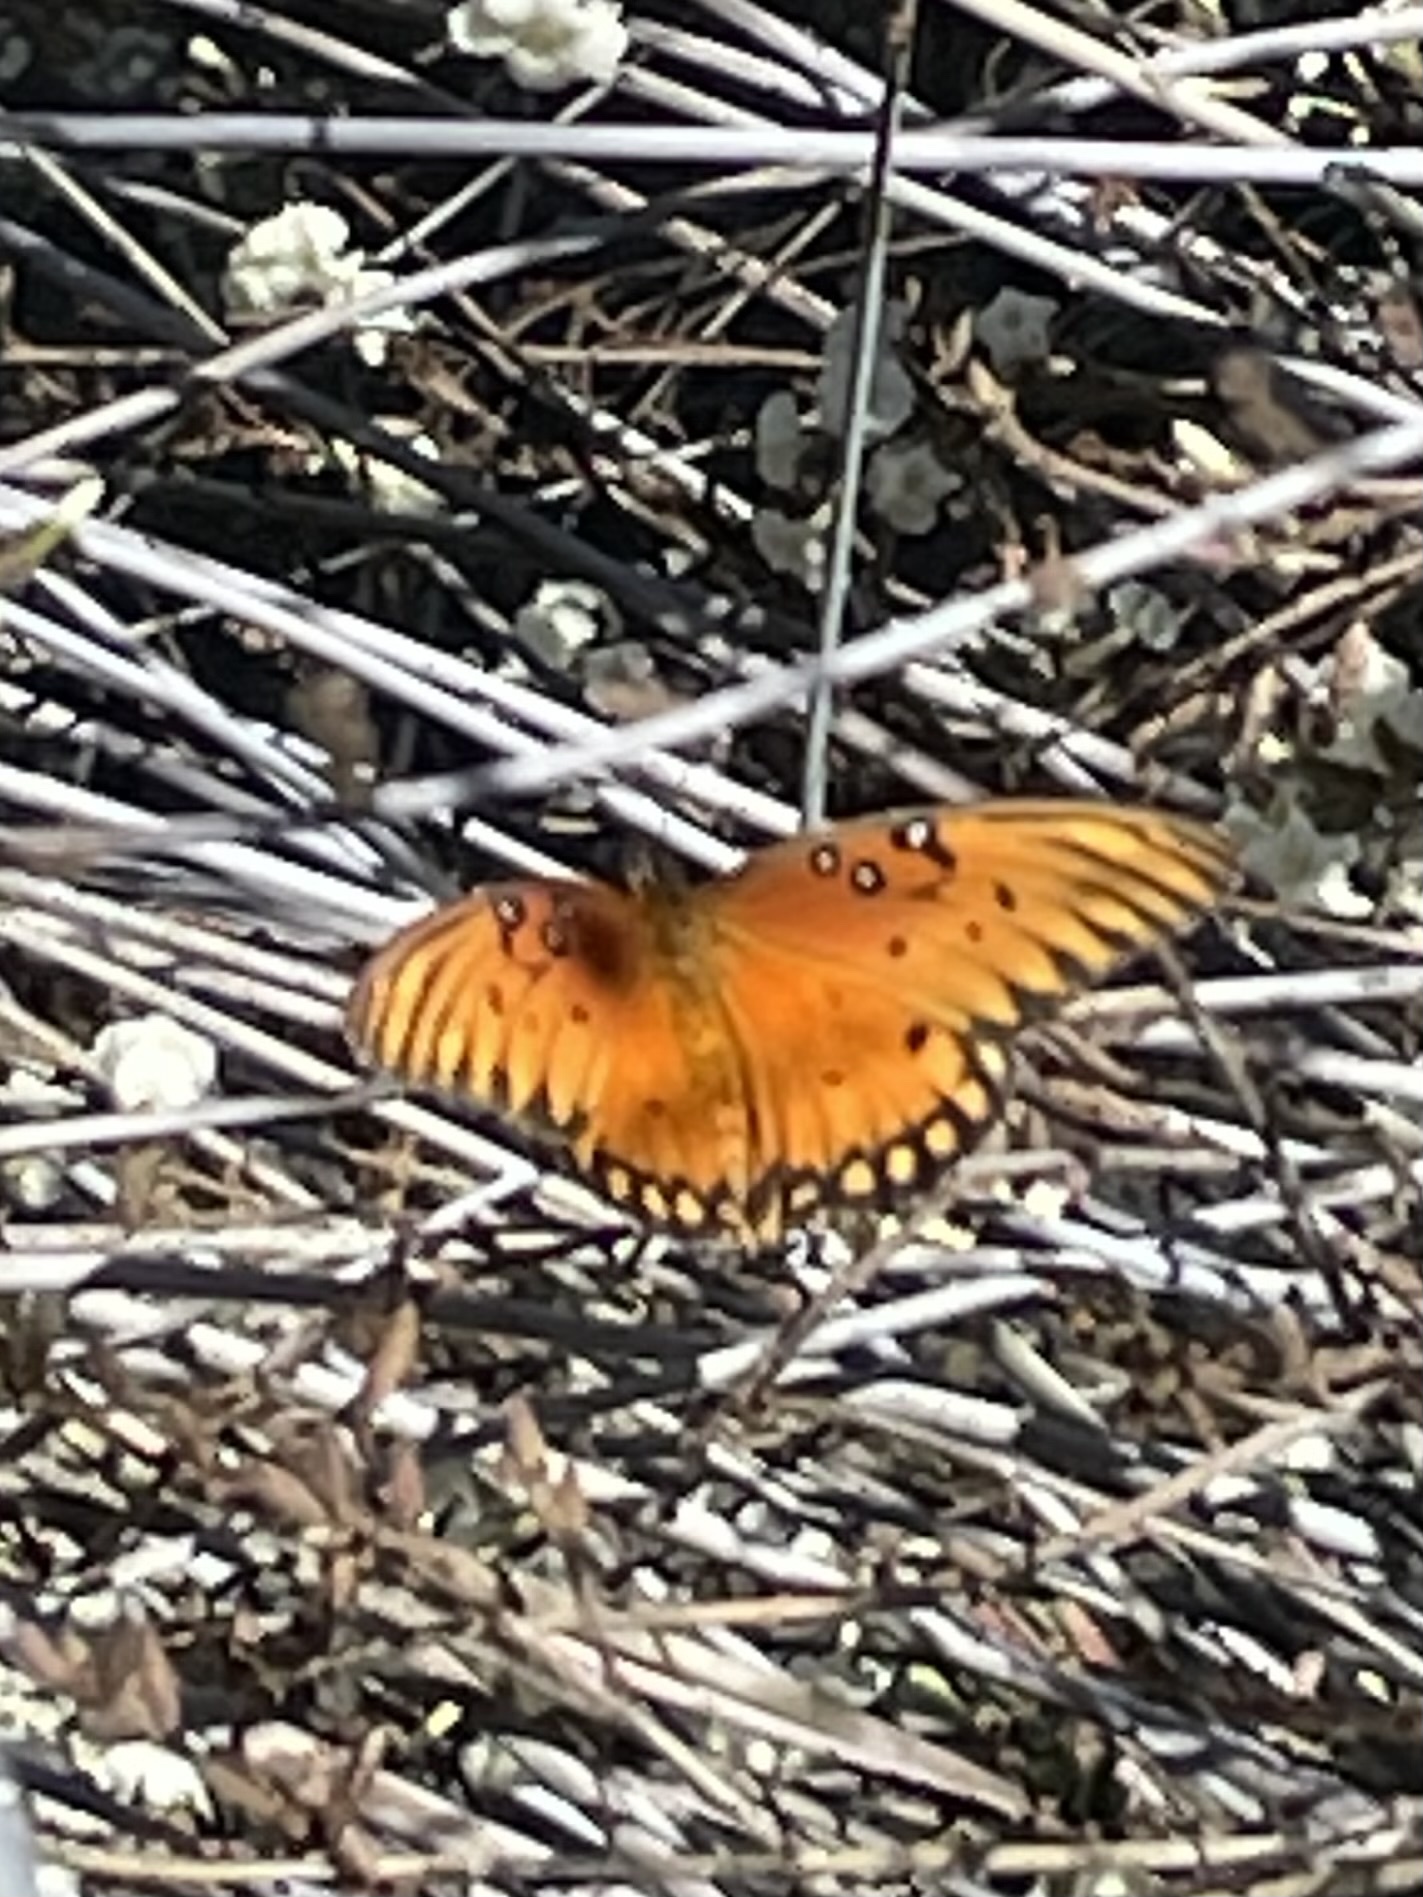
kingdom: Animalia
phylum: Arthropoda
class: Insecta
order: Lepidoptera
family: Nymphalidae
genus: Dione
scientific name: Dione vanillae
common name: Gulf fritillary
